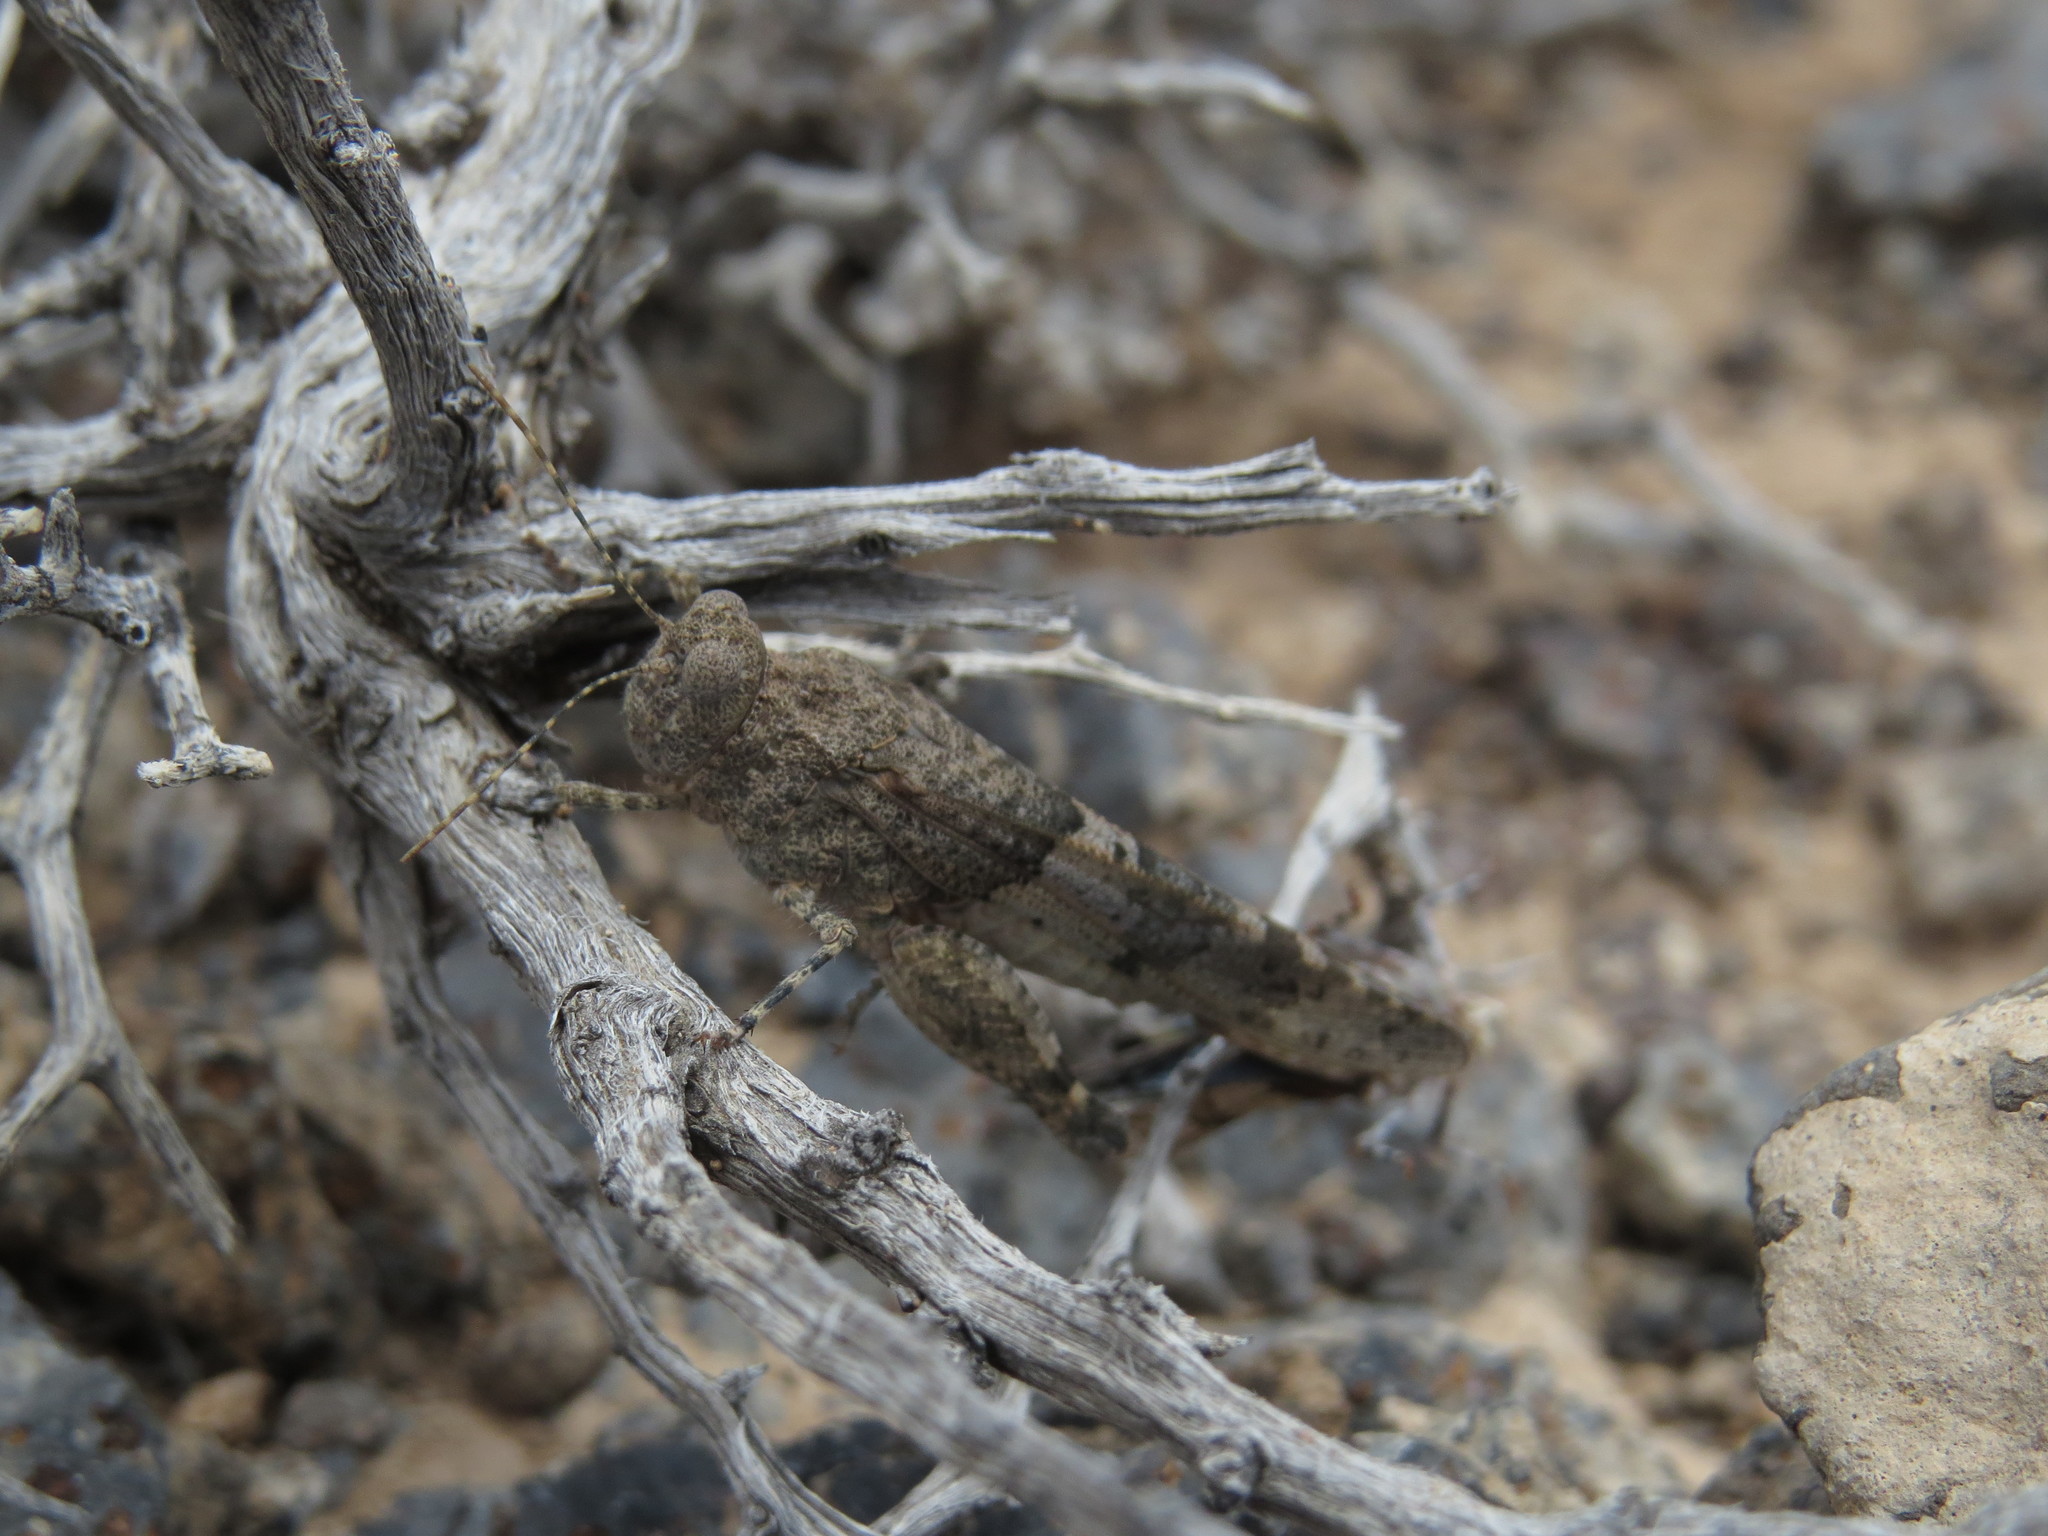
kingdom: Animalia
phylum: Arthropoda
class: Insecta
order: Orthoptera
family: Acrididae
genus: Sphingonotus
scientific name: Sphingonotus fuerteventurae
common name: Fuerteventura sand grasshopper
